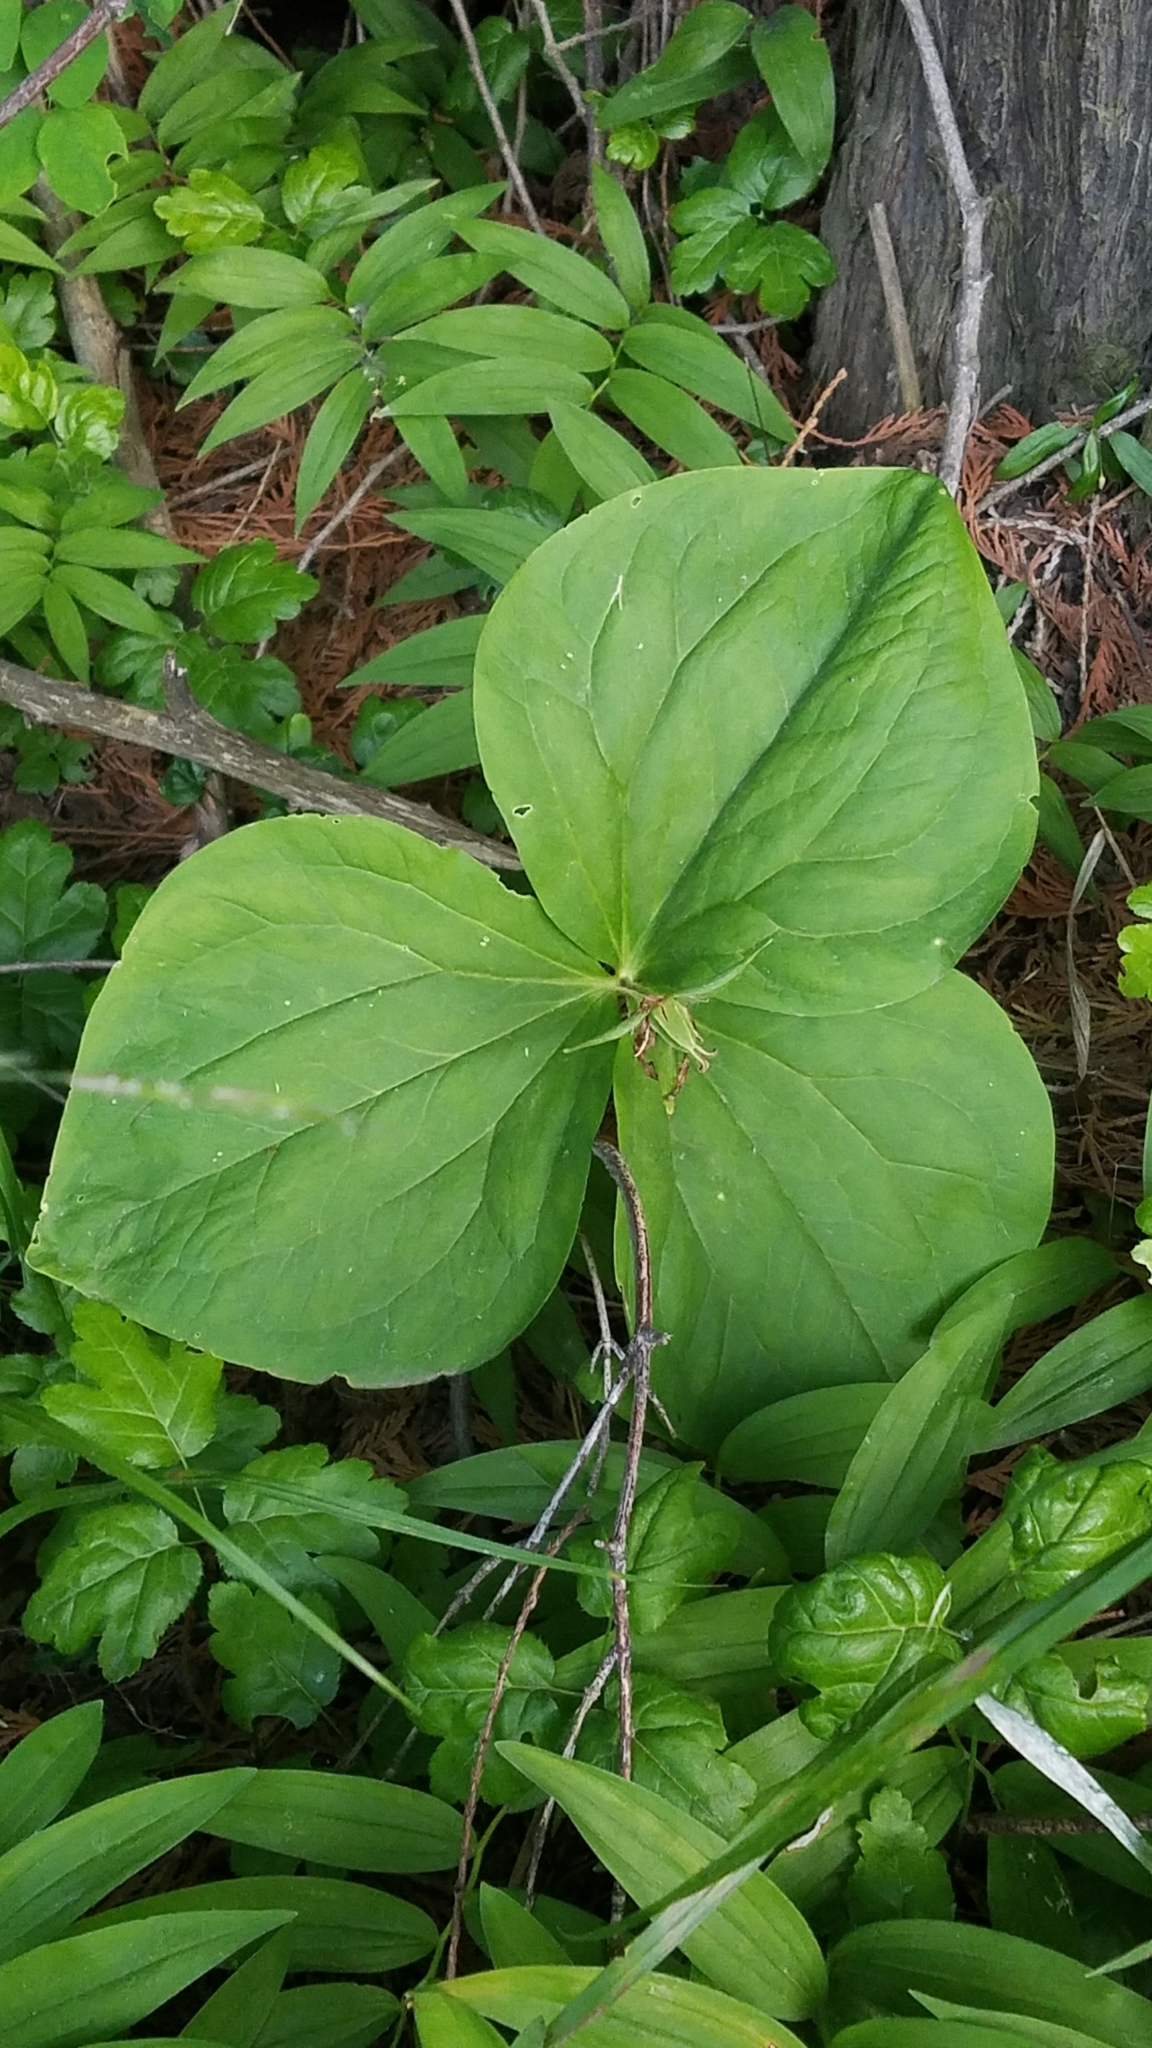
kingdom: Plantae
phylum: Tracheophyta
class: Liliopsida
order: Liliales
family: Melanthiaceae
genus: Trillium
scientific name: Trillium ovatum
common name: Pacific trillium
